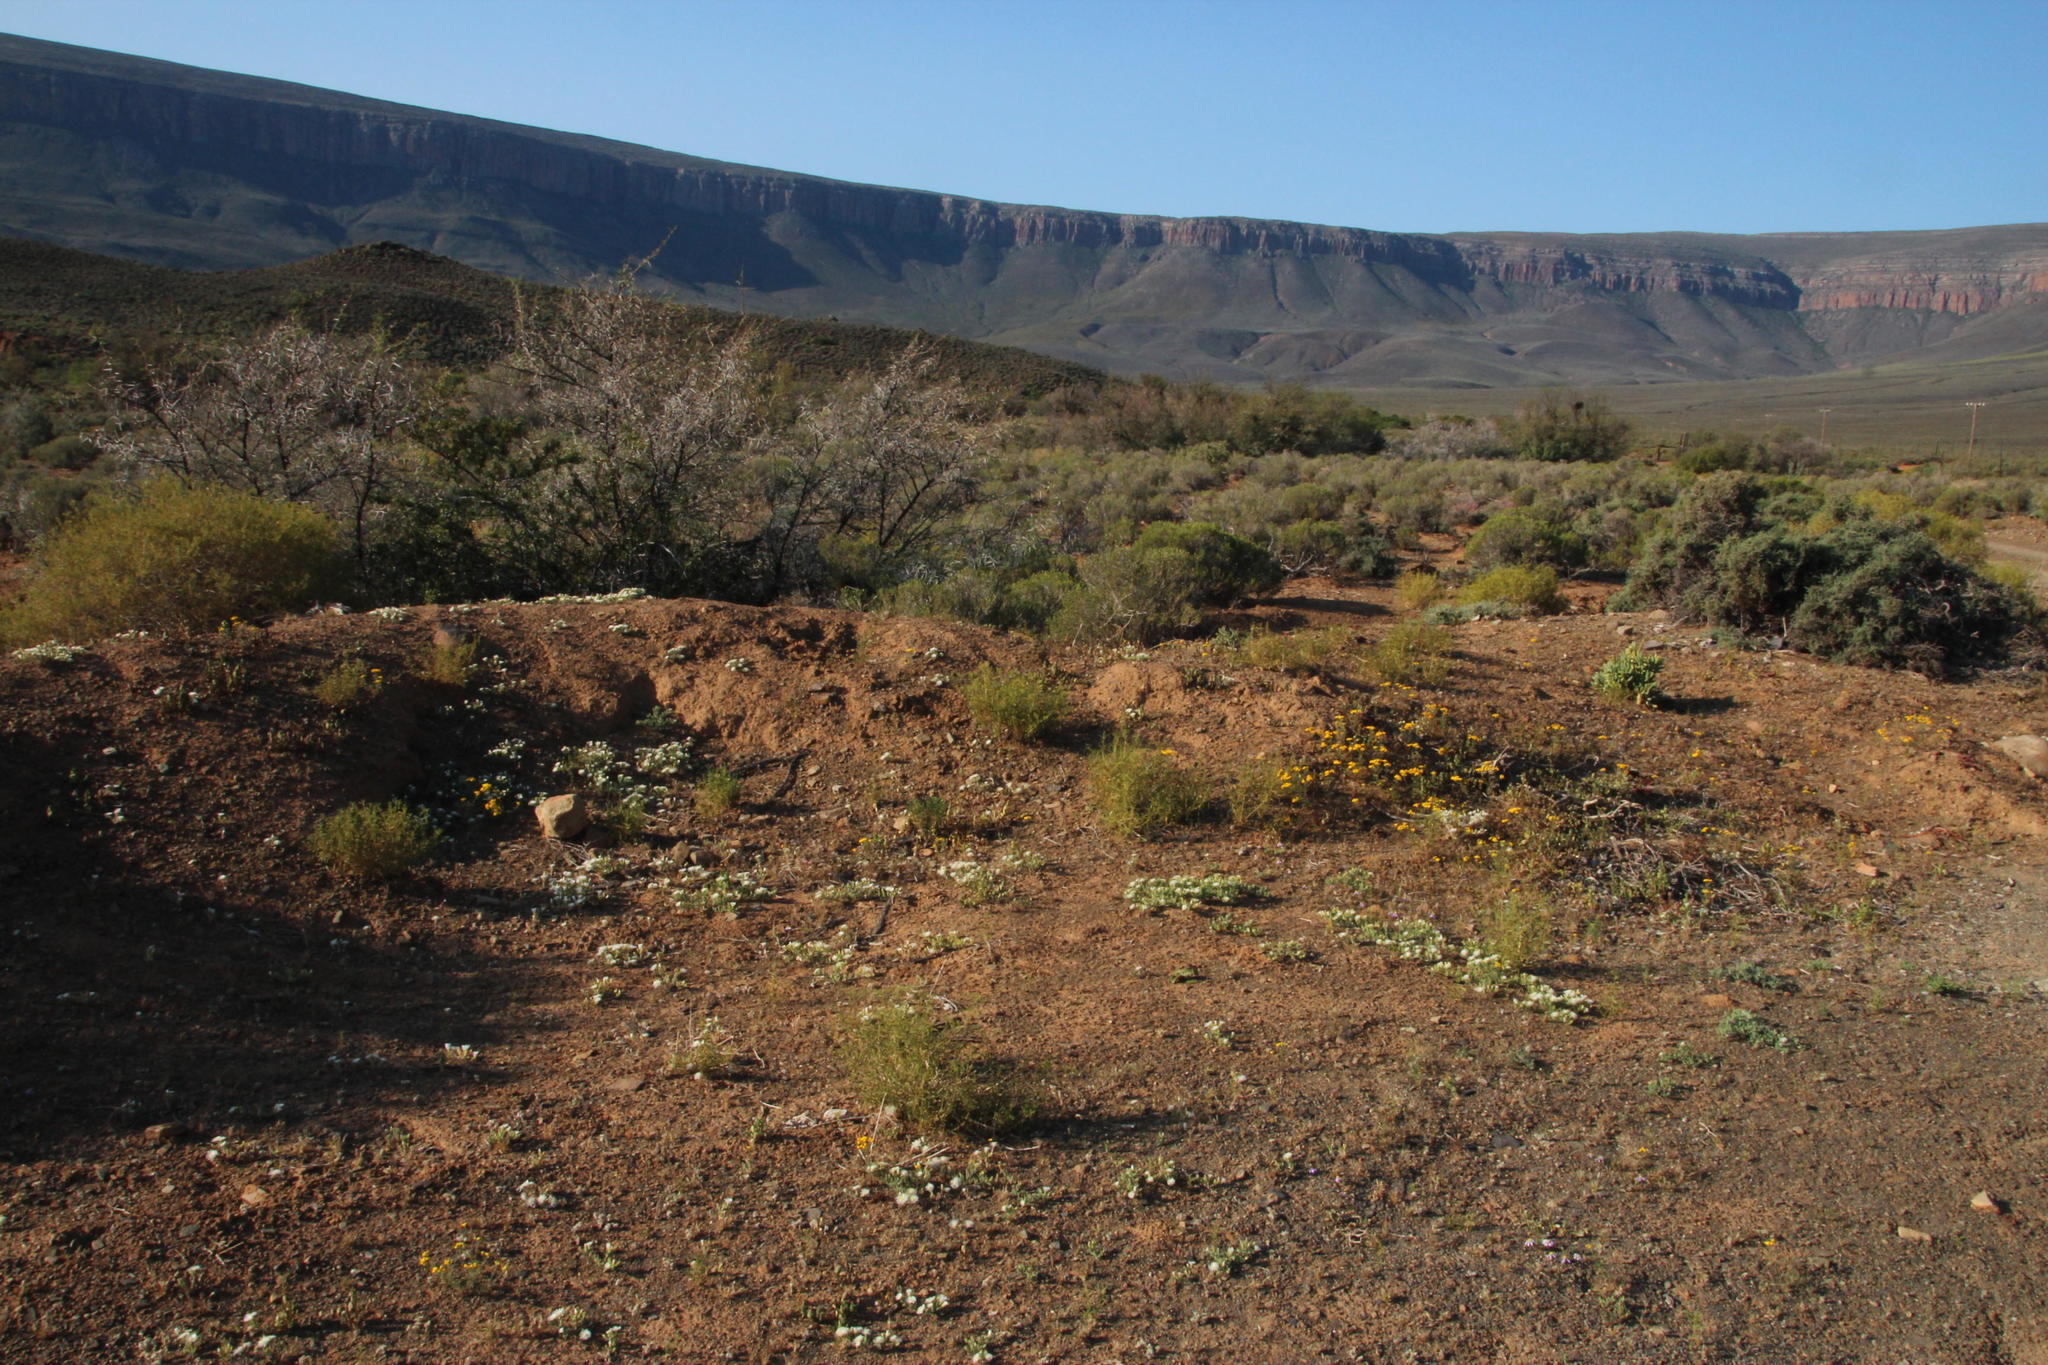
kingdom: Plantae
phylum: Tracheophyta
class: Magnoliopsida
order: Caryophyllales
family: Aizoaceae
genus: Mesembryanthemum
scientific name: Mesembryanthemum inachabense
